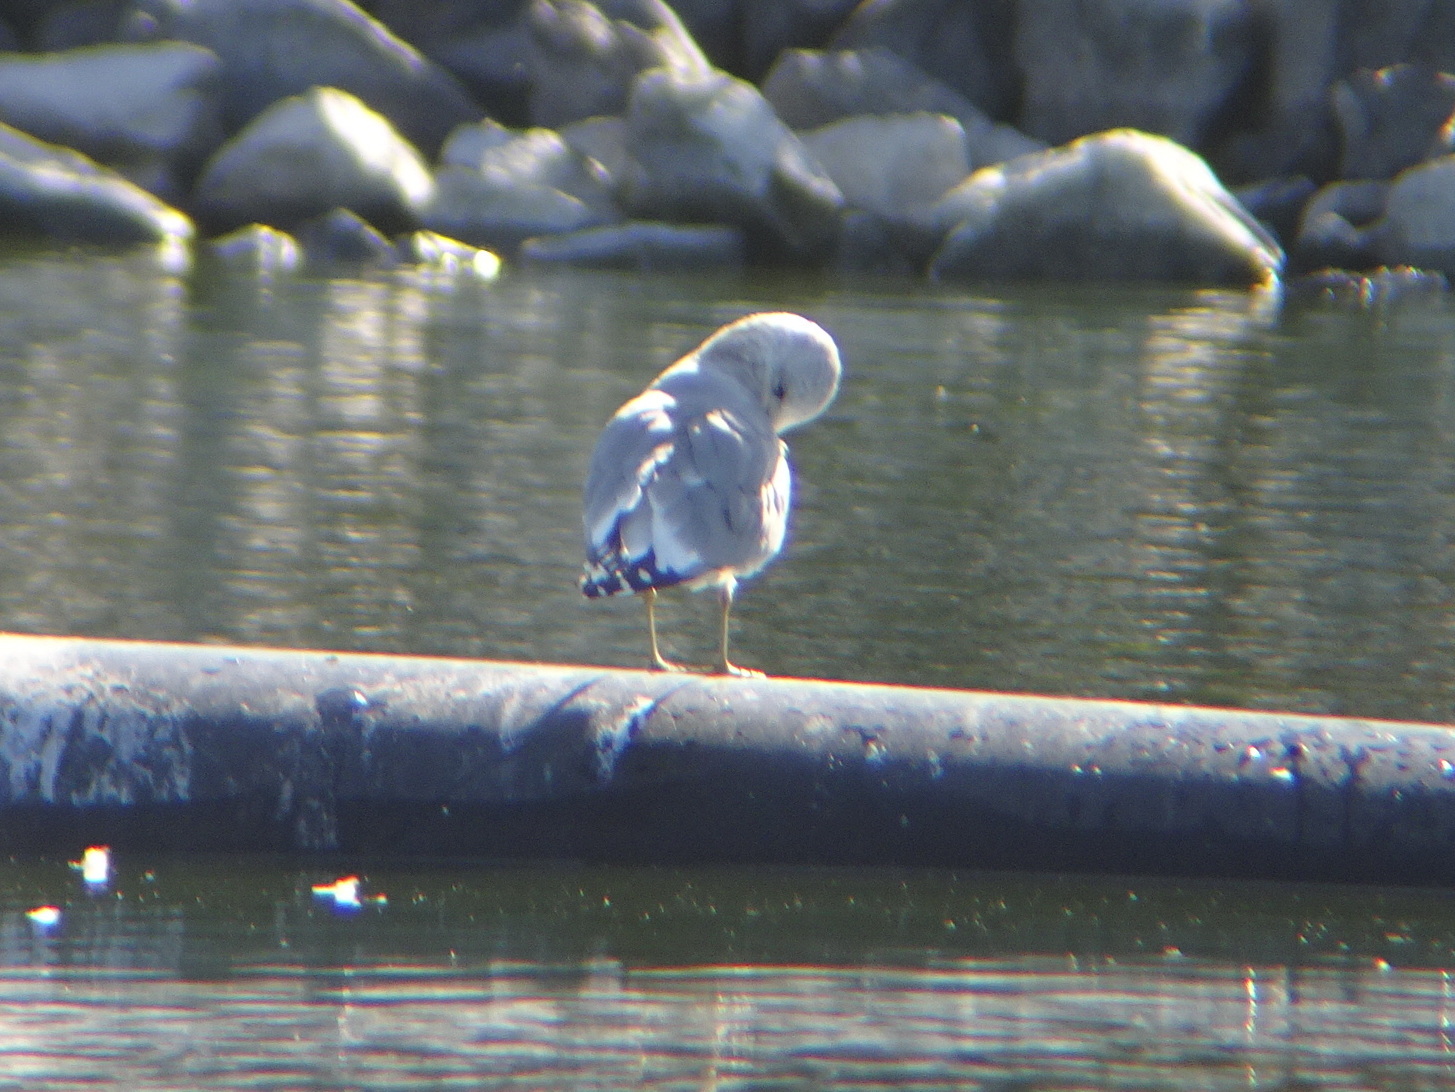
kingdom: Animalia
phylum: Chordata
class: Aves
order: Charadriiformes
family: Laridae
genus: Larus
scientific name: Larus brachyrhynchus
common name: Short-billed gull
